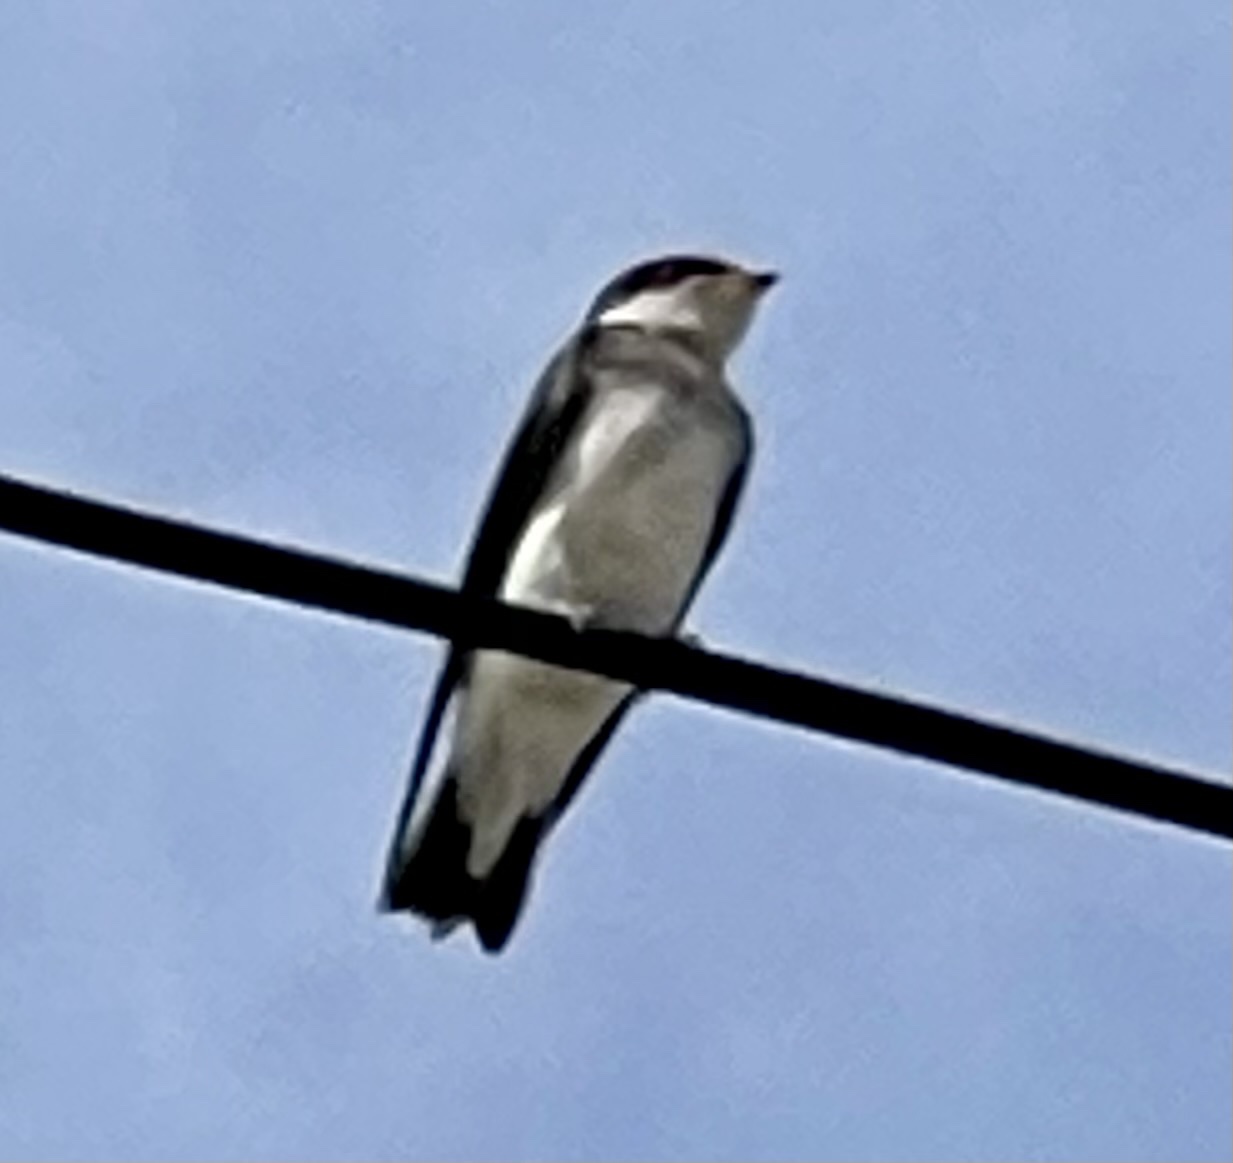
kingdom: Animalia
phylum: Chordata
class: Aves
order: Passeriformes
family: Hirundinidae
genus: Tachycineta
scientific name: Tachycineta leucopyga
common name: Chilean swallow
